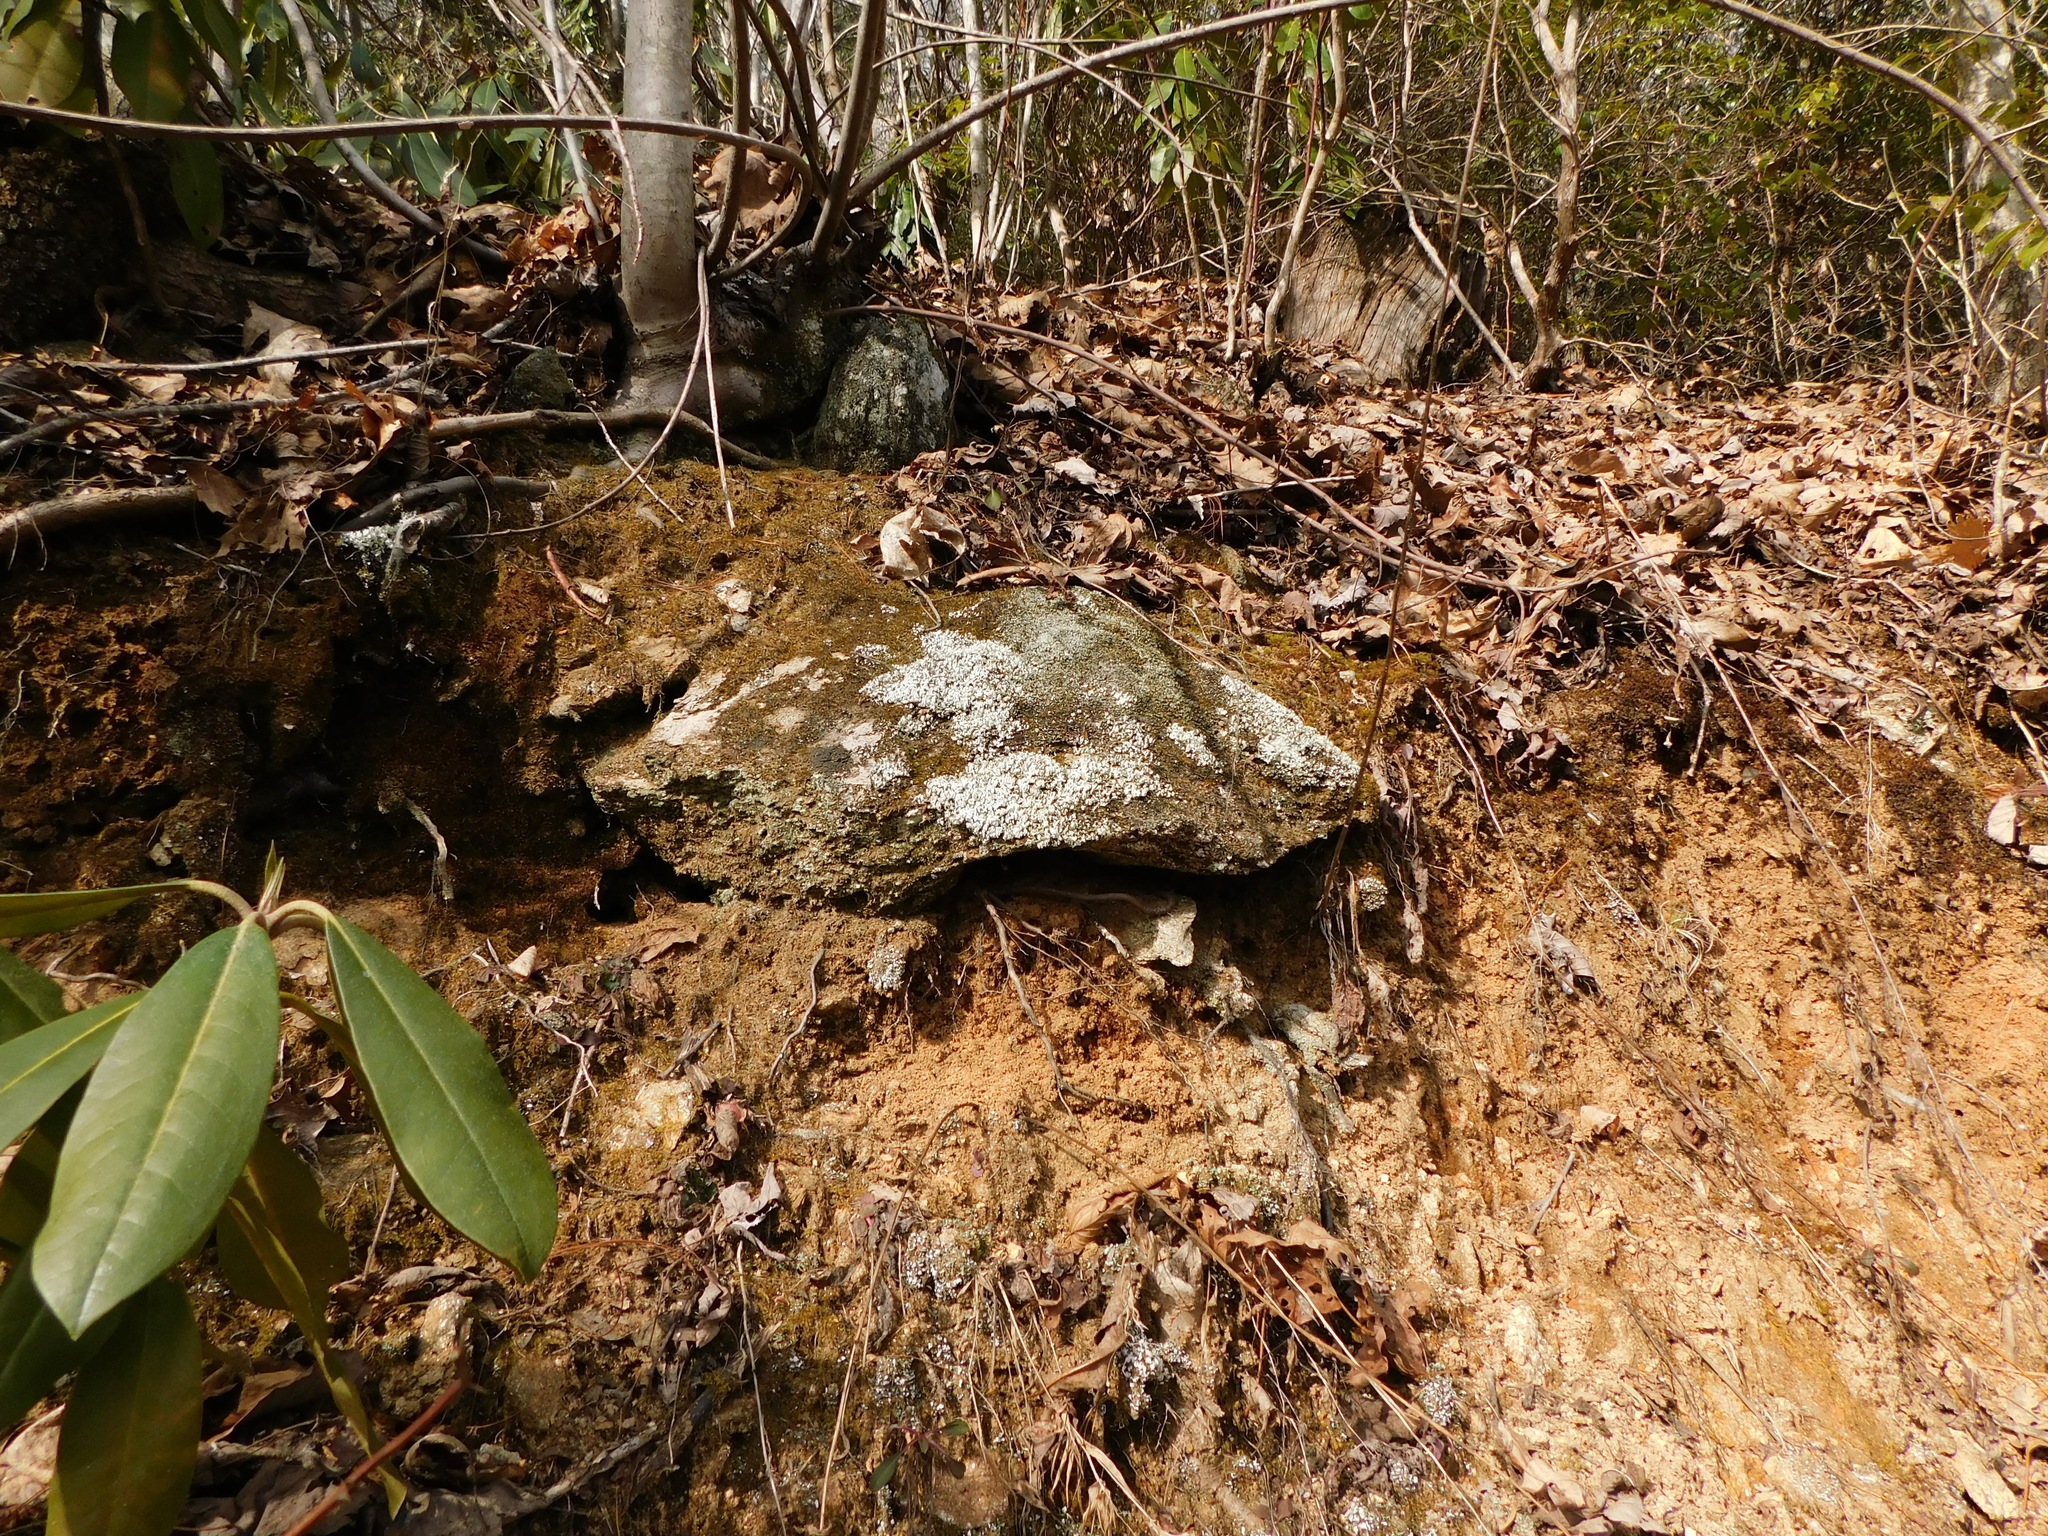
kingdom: Fungi
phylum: Ascomycota
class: Lecanoromycetes
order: Lecanorales
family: Cladoniaceae
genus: Cladonia
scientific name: Cladonia apodocarpa
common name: Stalkless cladonia
